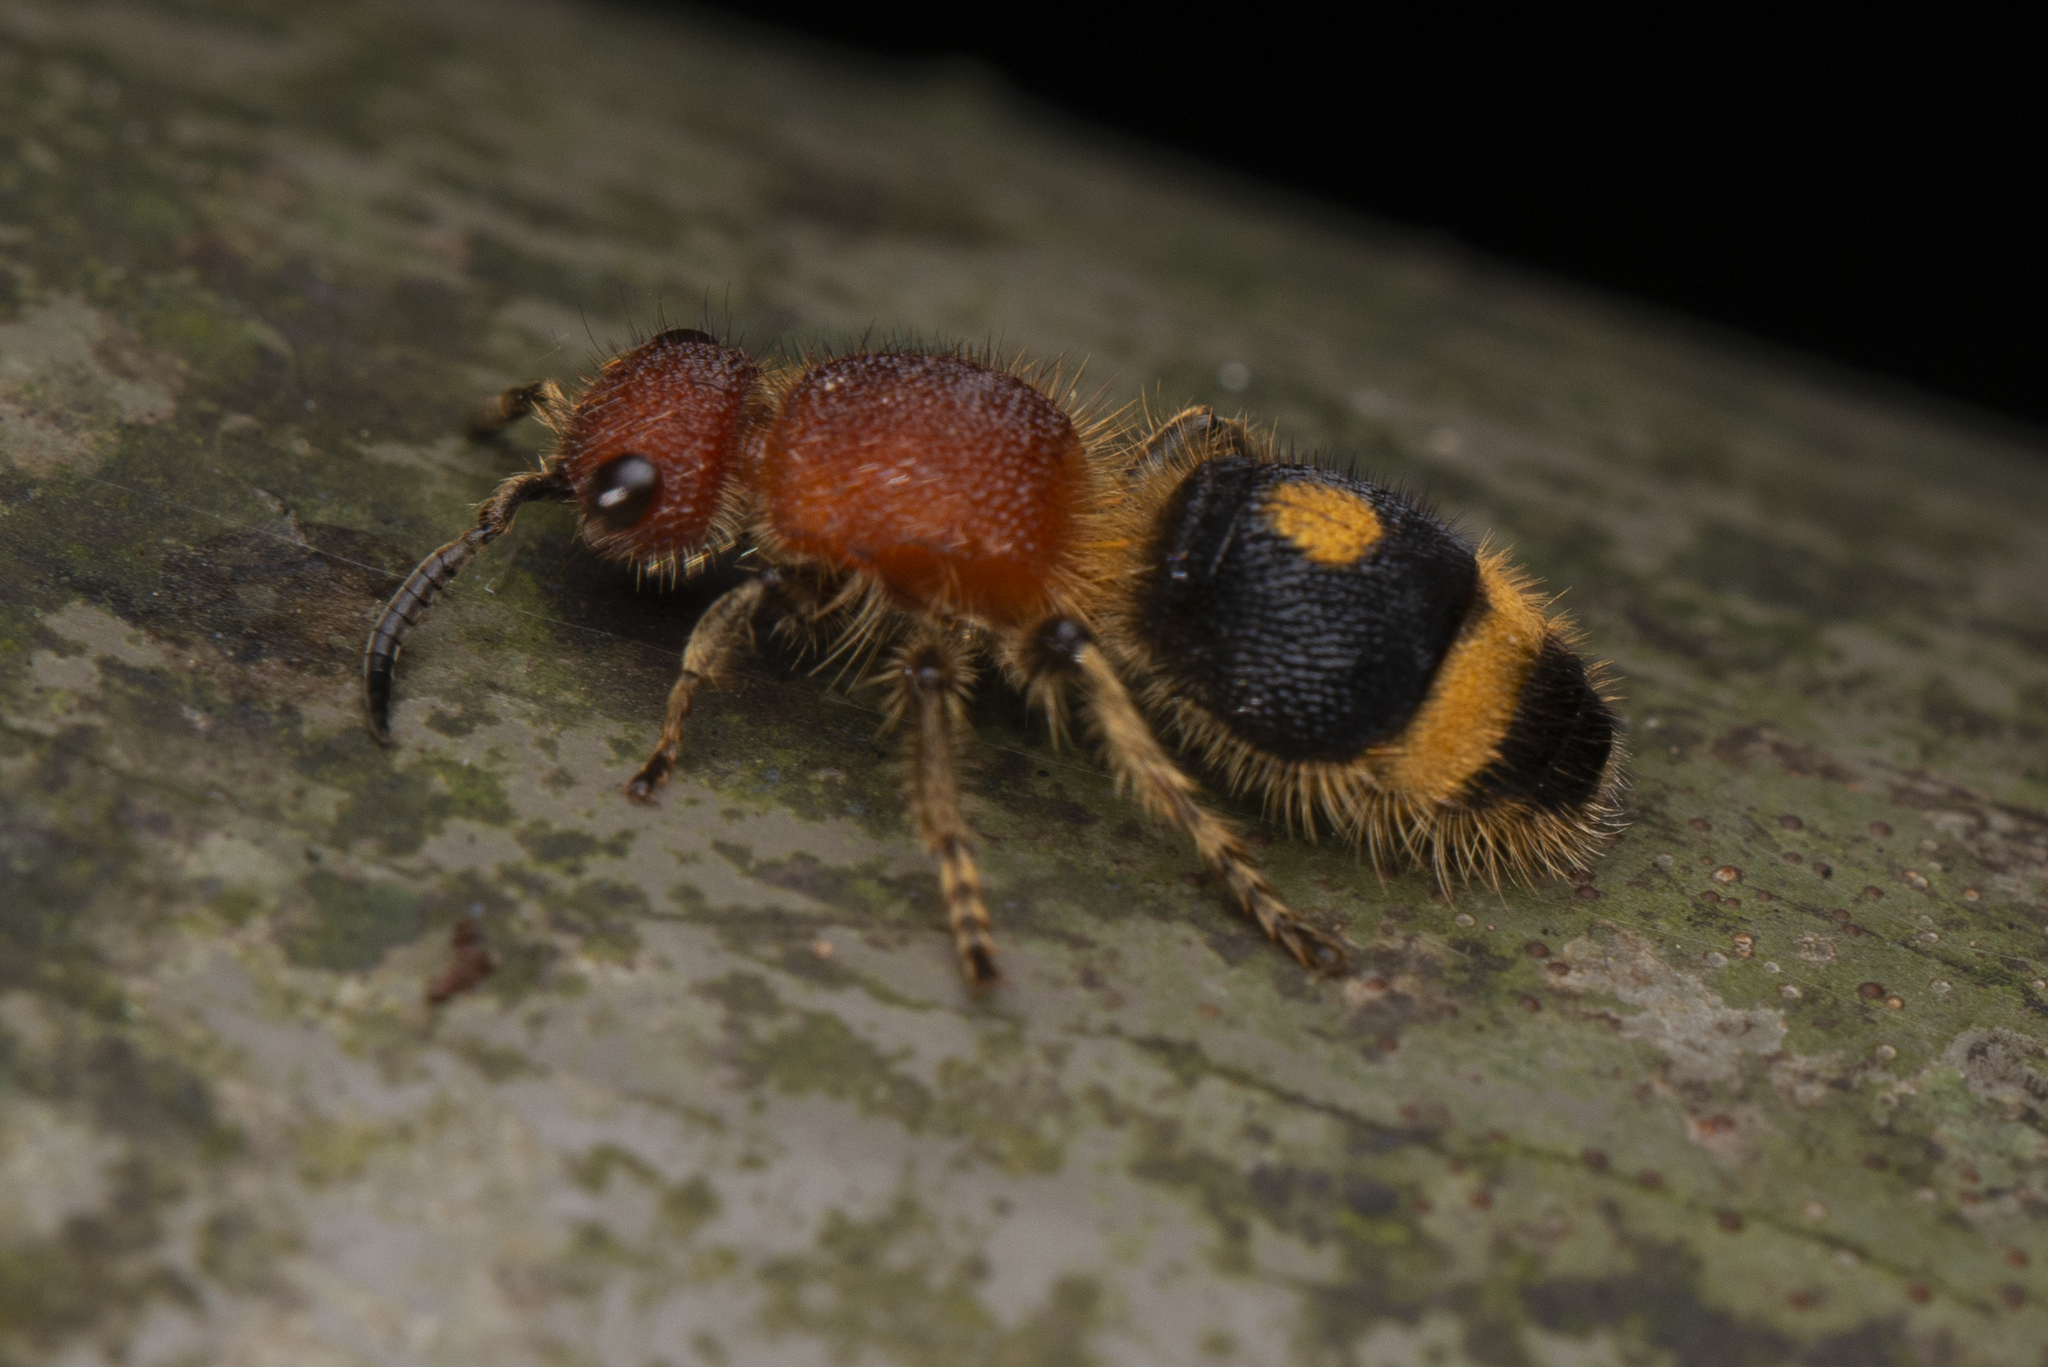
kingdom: Animalia
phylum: Arthropoda
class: Insecta
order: Hymenoptera
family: Mutillidae
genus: Odontomutilla
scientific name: Odontomutilla uranioides
